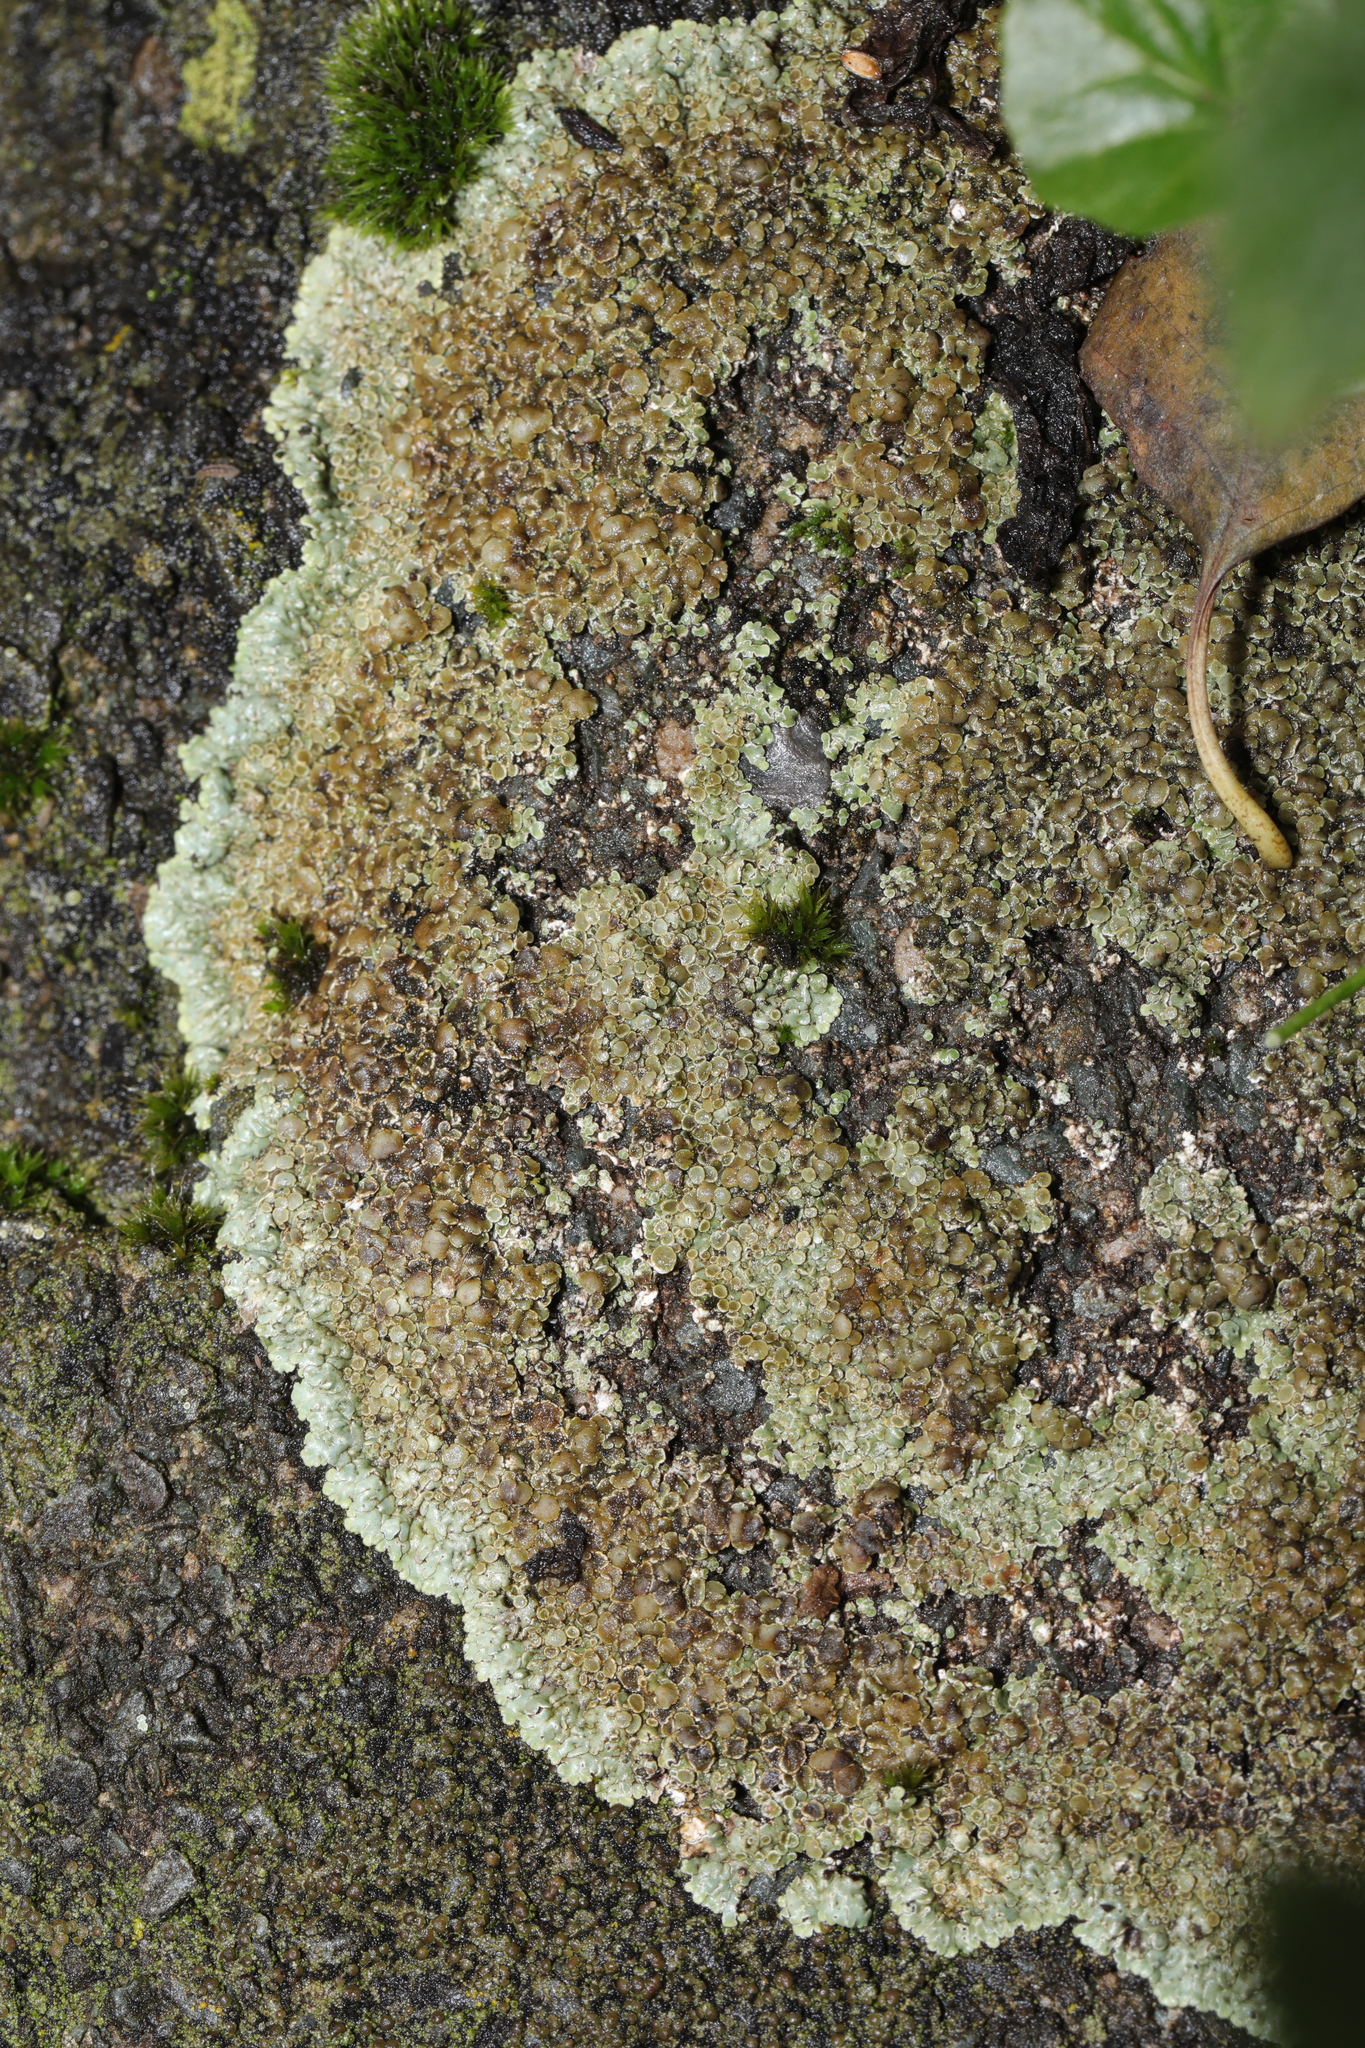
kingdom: Fungi
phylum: Ascomycota
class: Lecanoromycetes
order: Lecanorales
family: Lecanoraceae
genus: Protoparmeliopsis
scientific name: Protoparmeliopsis muralis
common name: Stonewall rim lichen
